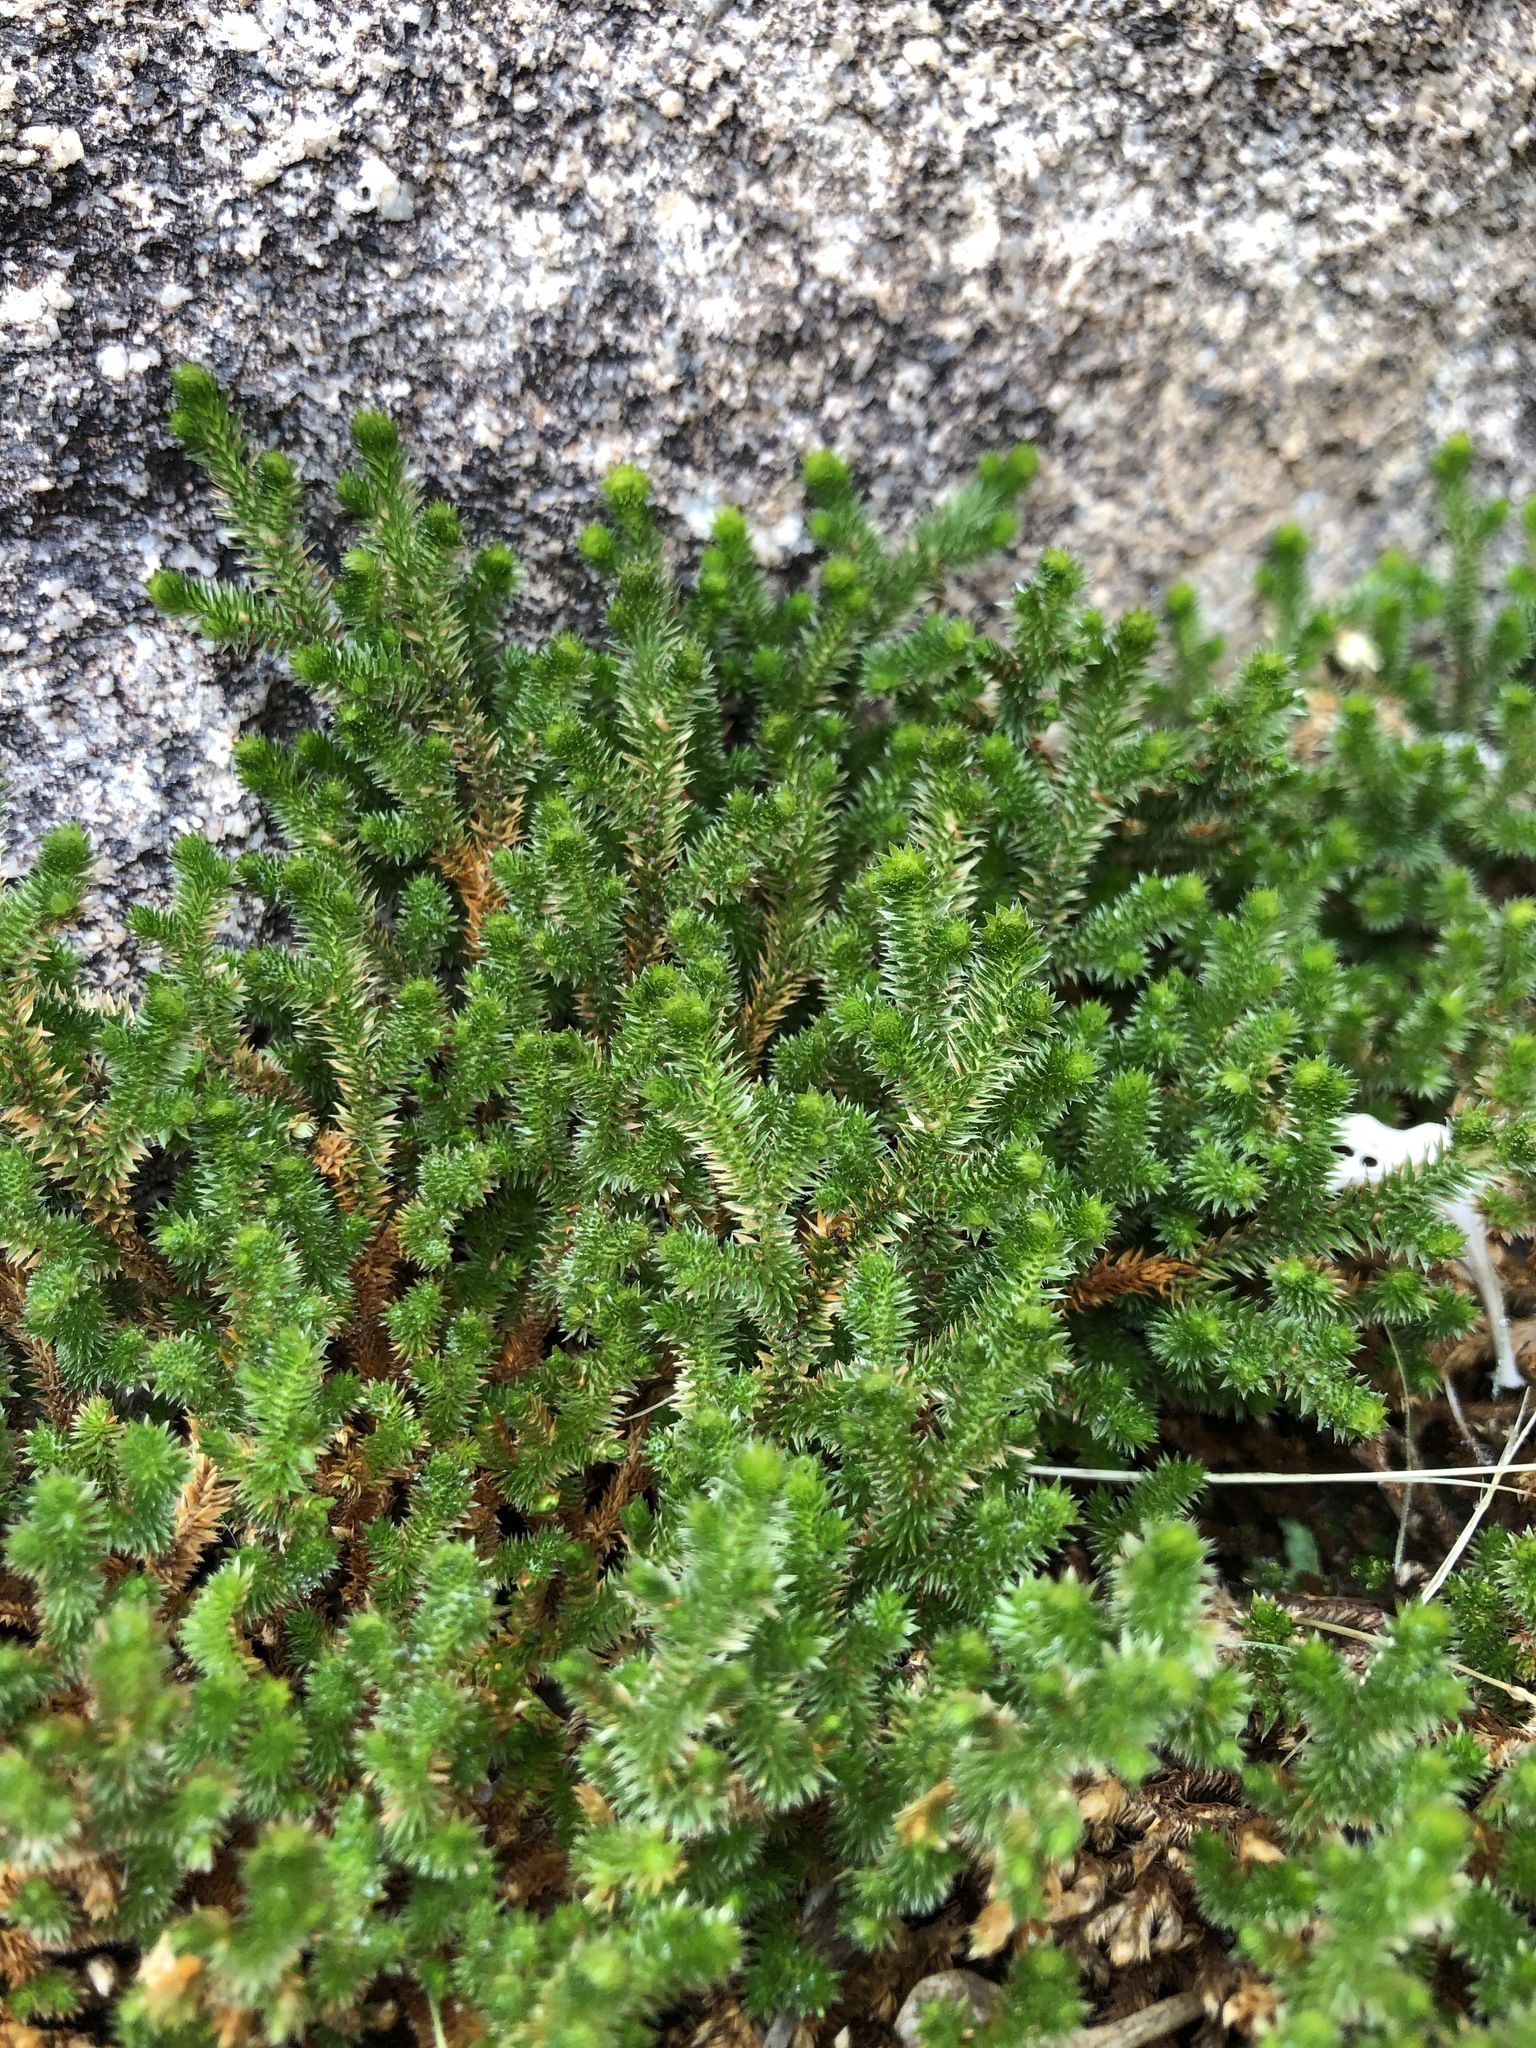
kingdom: Plantae
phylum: Tracheophyta
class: Lycopodiopsida
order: Selaginellales
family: Selaginellaceae
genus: Selaginella
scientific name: Selaginella arizonica
